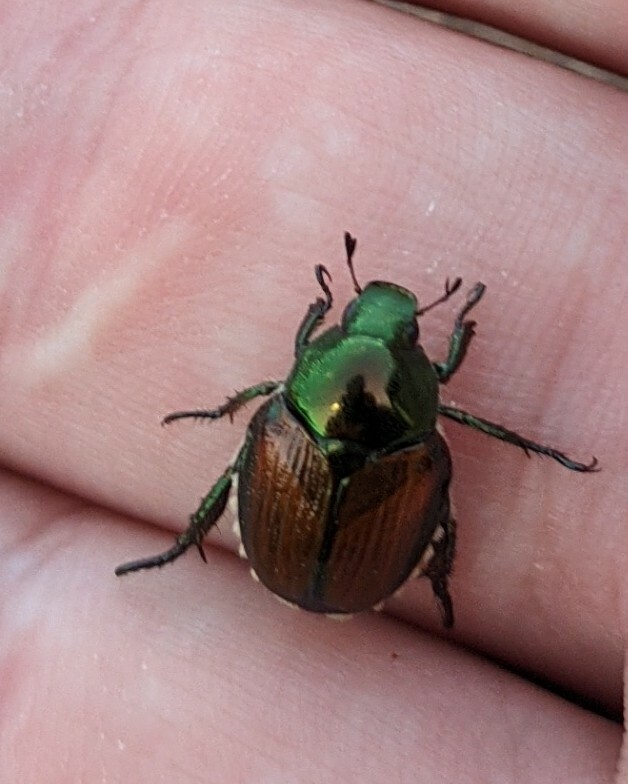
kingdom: Animalia
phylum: Arthropoda
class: Insecta
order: Coleoptera
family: Scarabaeidae
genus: Popillia
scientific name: Popillia japonica
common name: Japanese beetle
